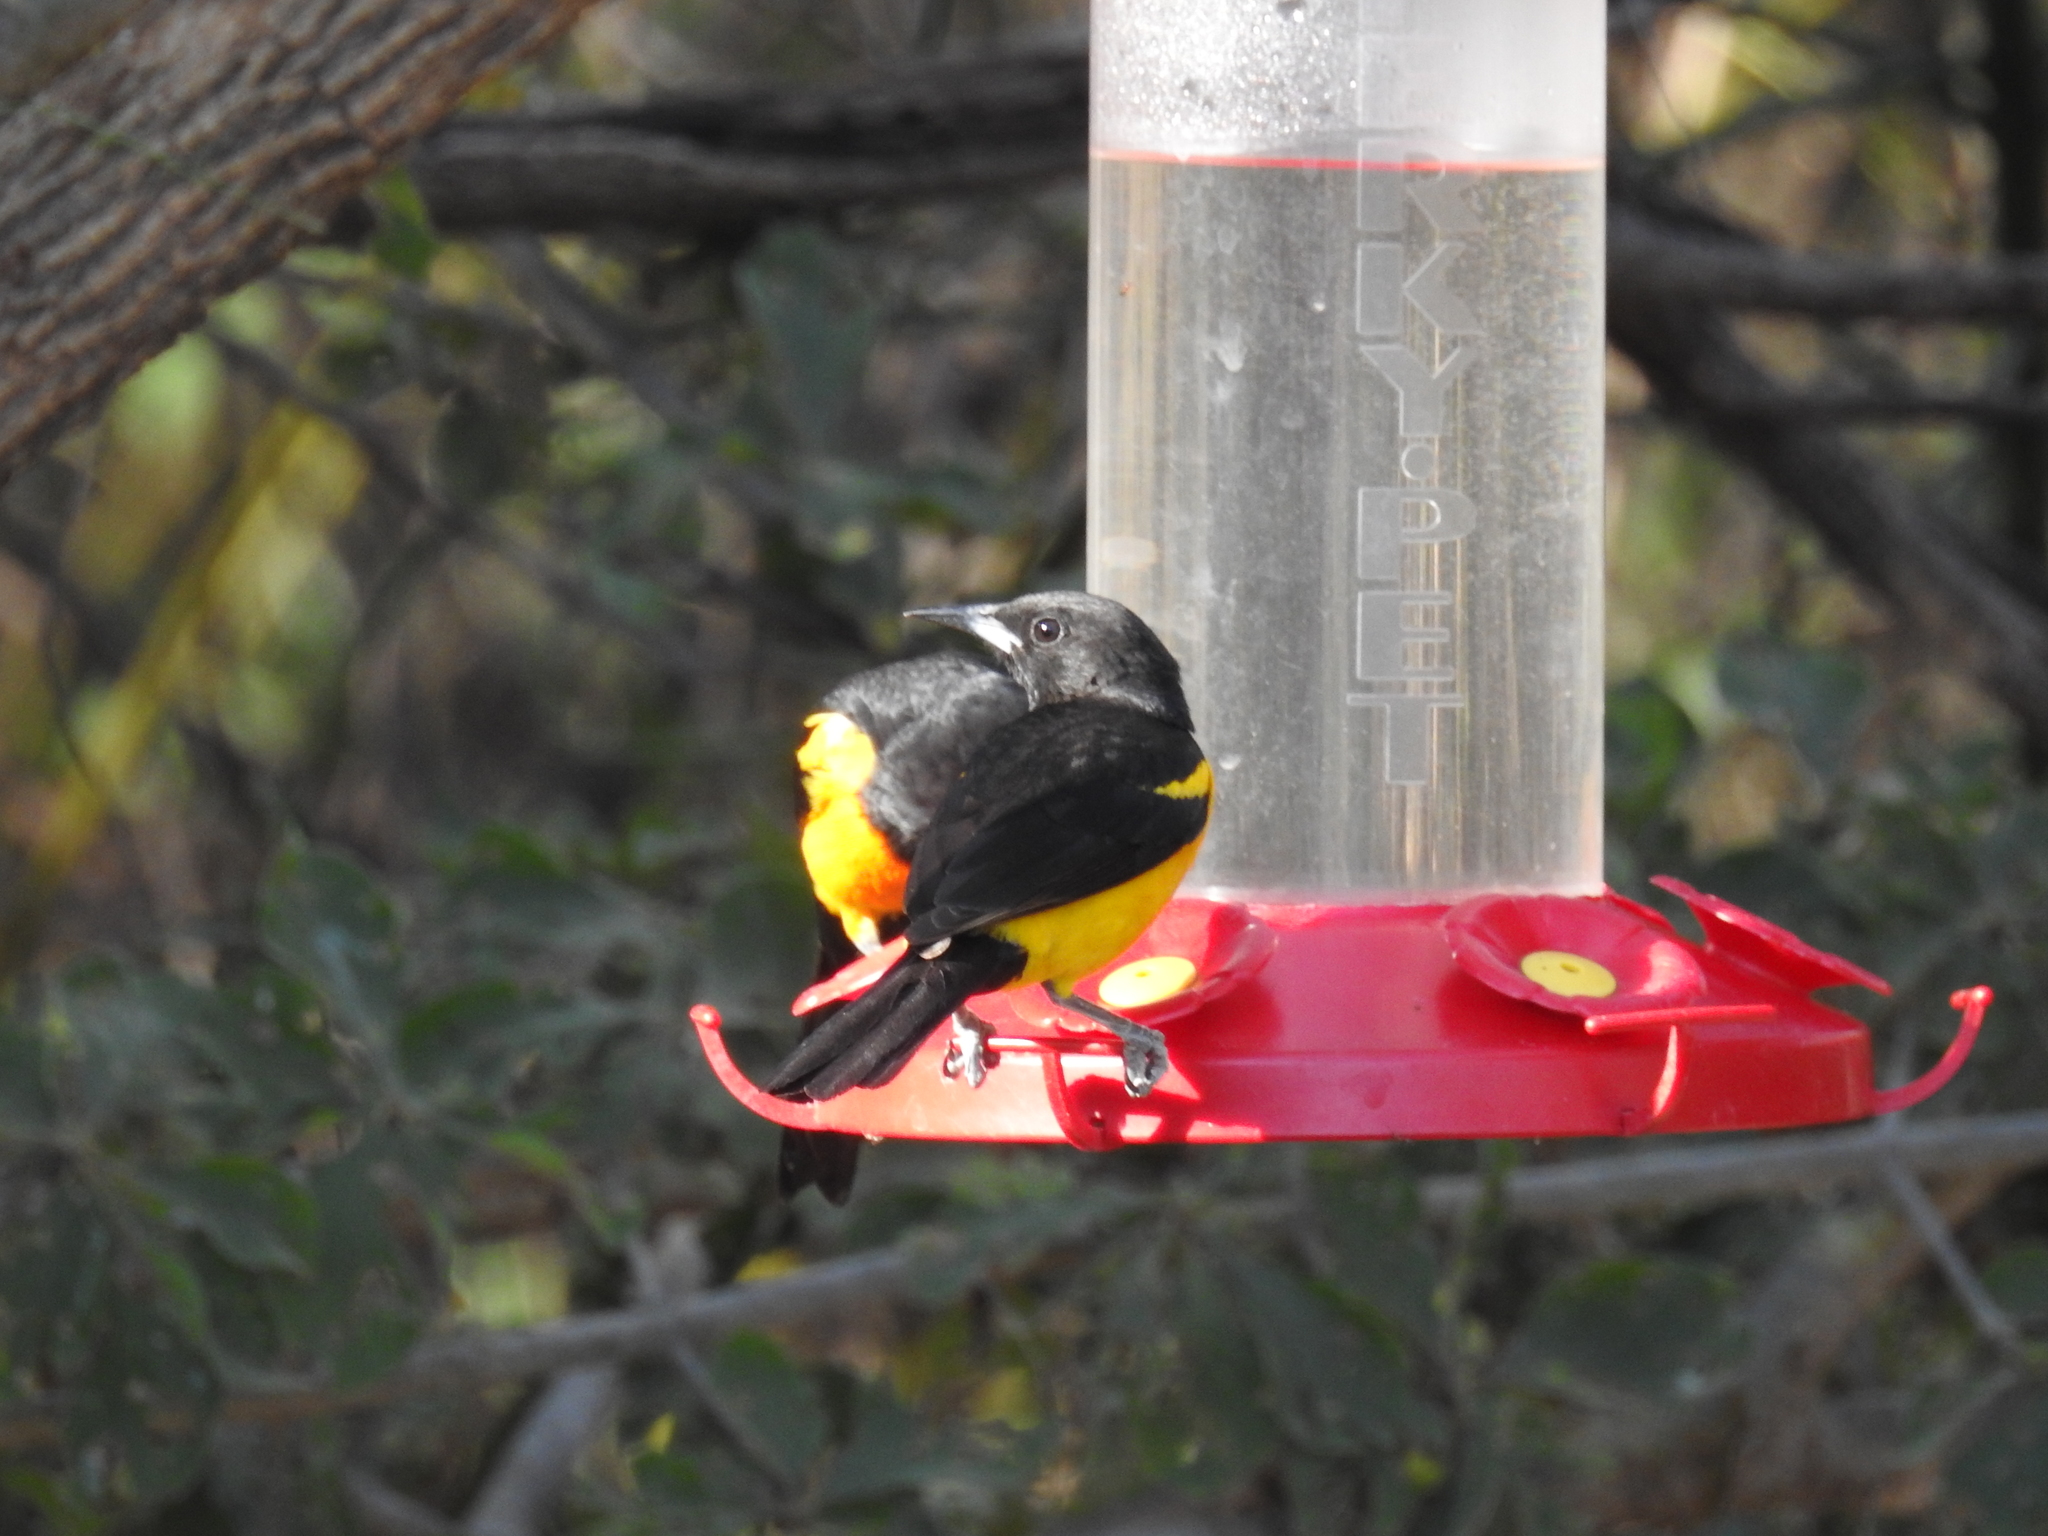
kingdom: Animalia
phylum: Chordata
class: Aves
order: Passeriformes
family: Icteridae
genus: Icterus
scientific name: Icterus wagleri
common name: Black-vented oriole
